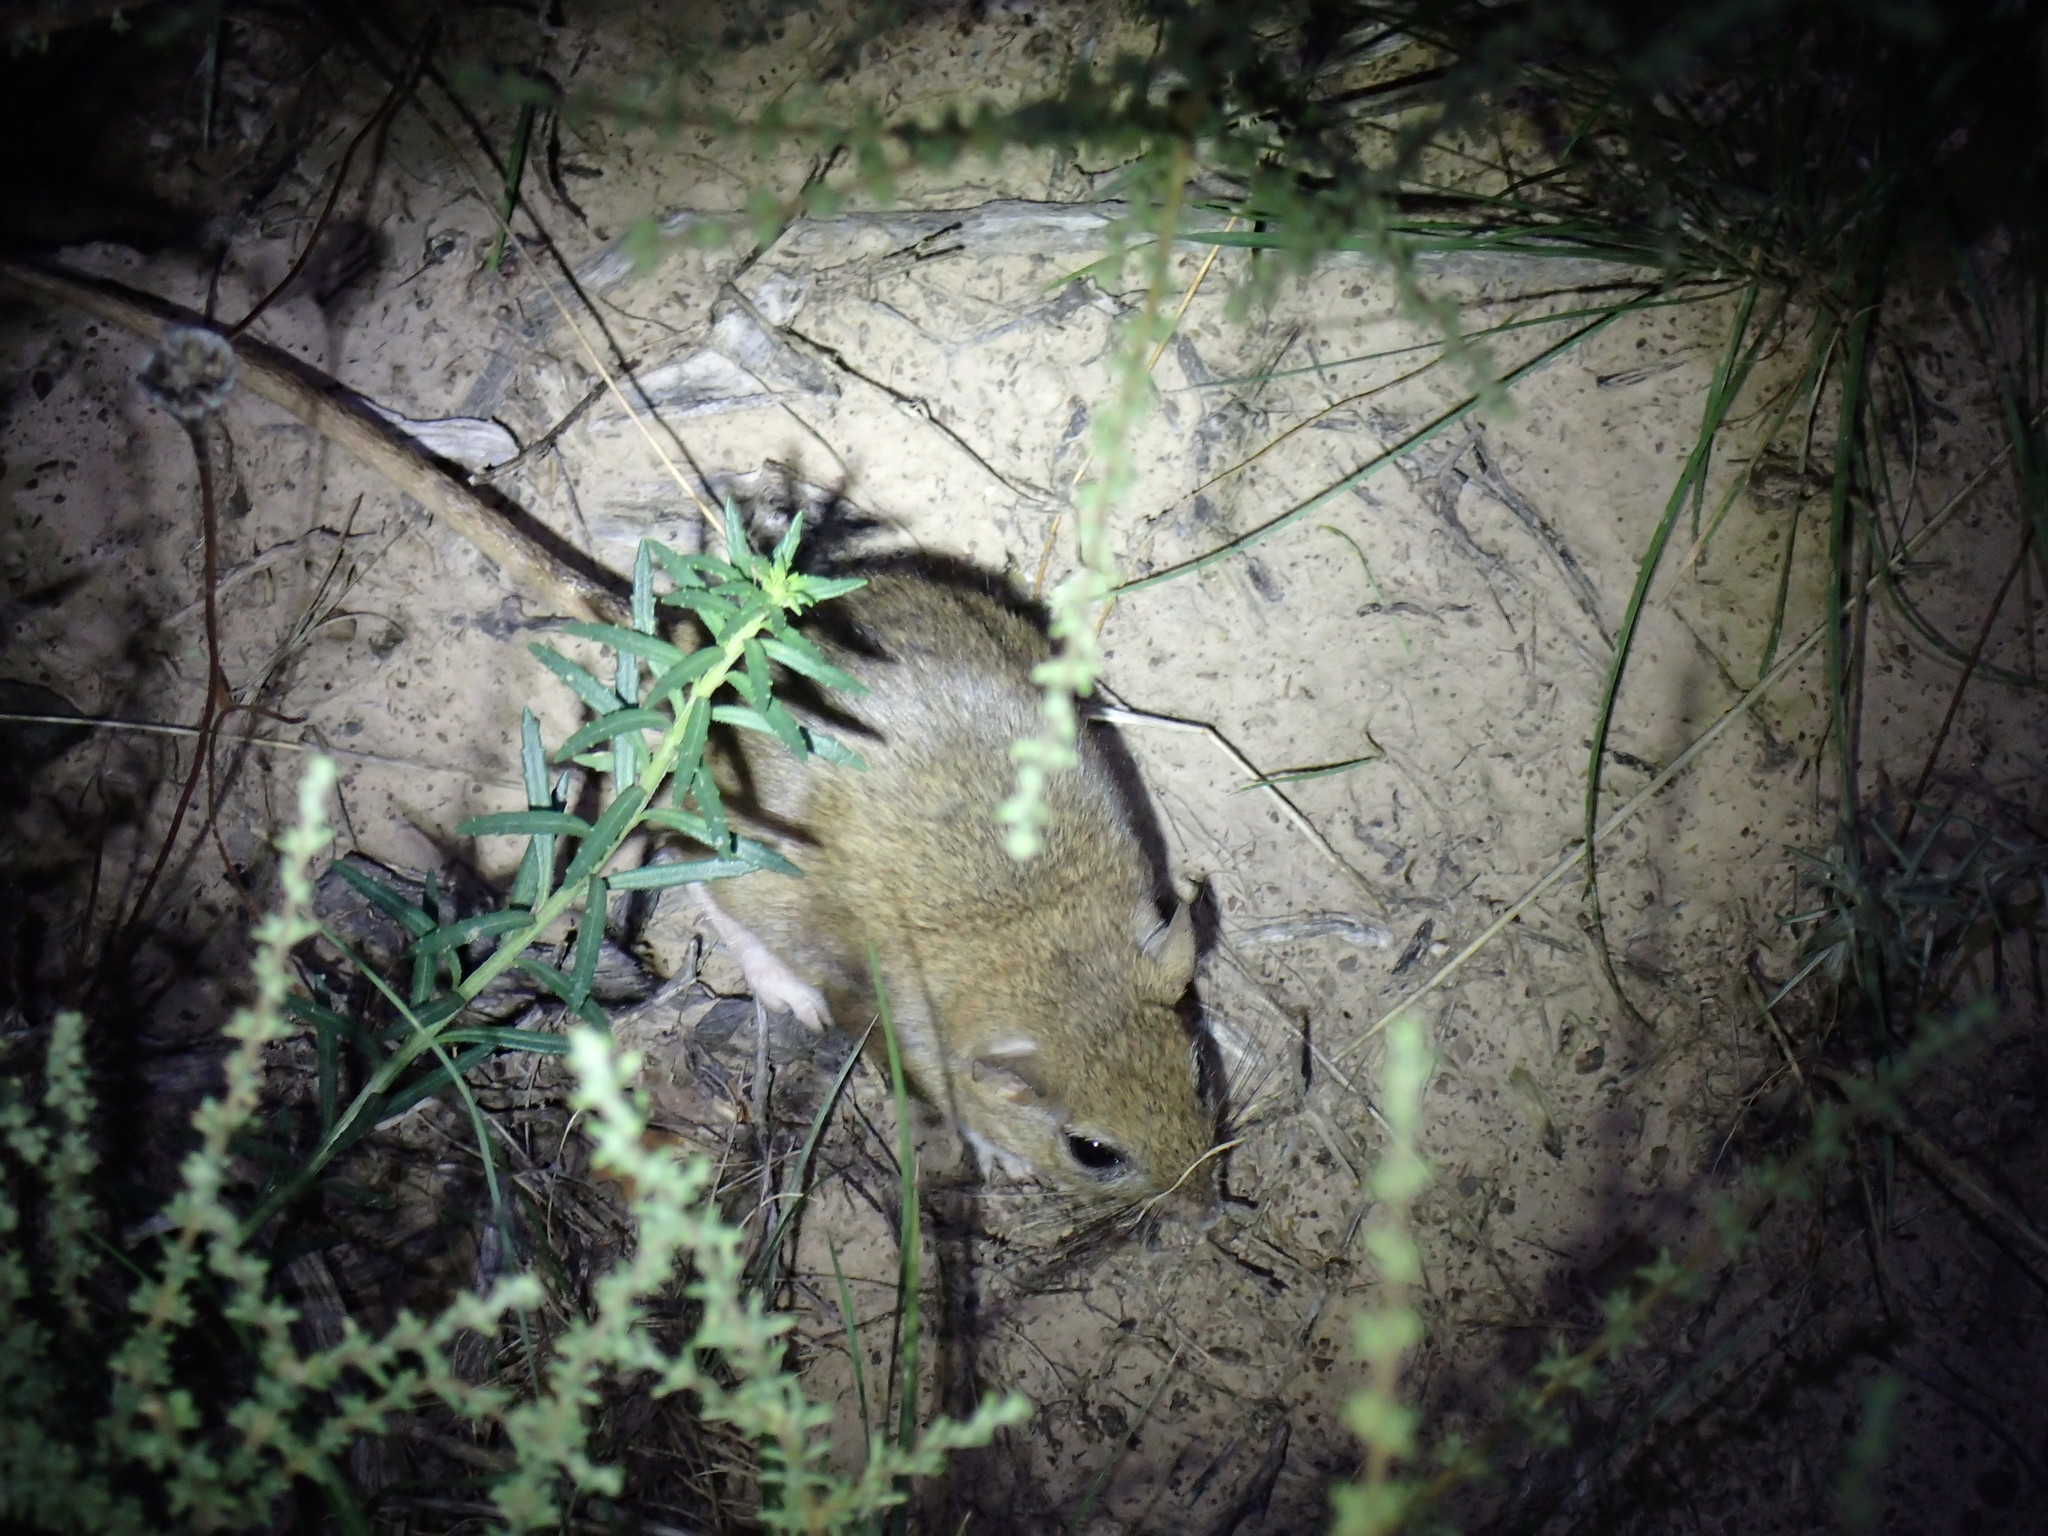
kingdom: Animalia
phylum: Chordata
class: Mammalia
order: Rodentia
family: Muridae
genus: Gerbilliscus
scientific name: Gerbilliscus afer
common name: Cape gerbil
